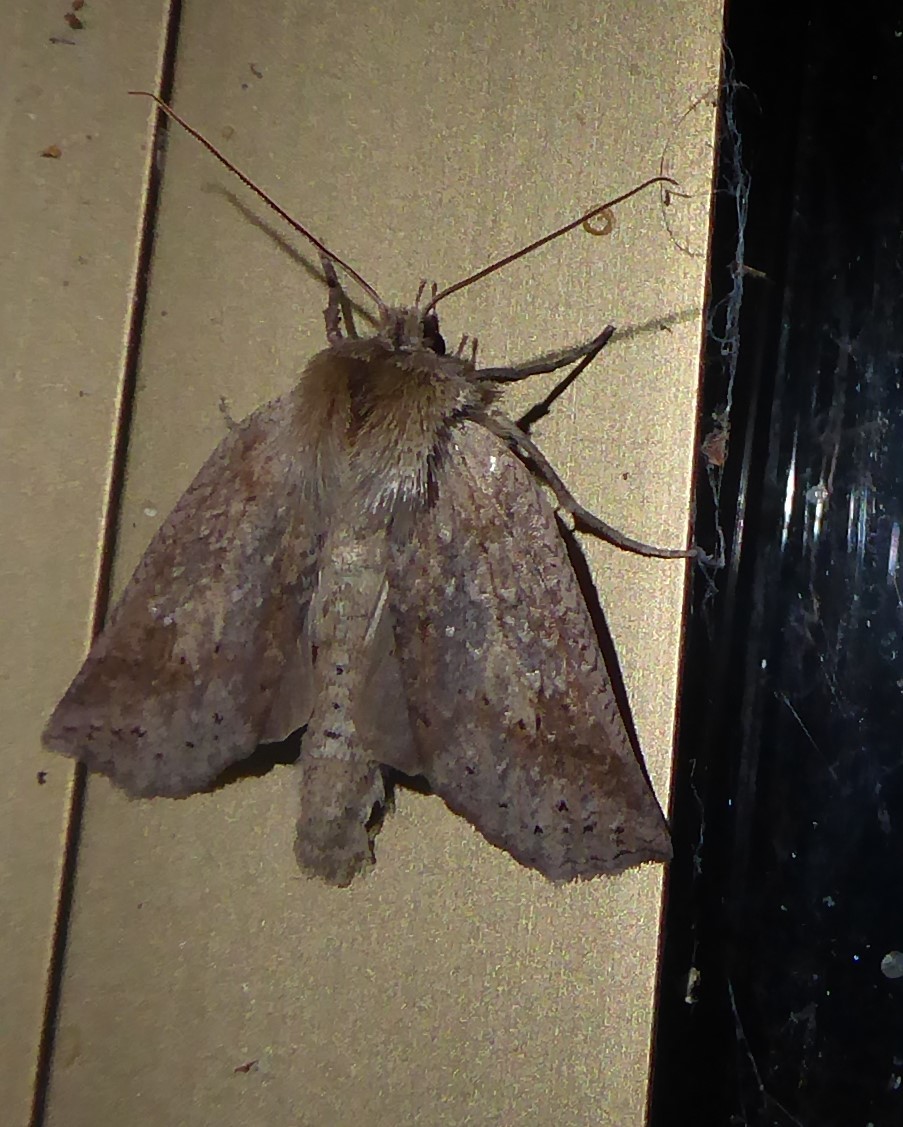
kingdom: Animalia
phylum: Arthropoda
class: Insecta
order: Lepidoptera
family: Geometridae
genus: Declana
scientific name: Declana leptomera
